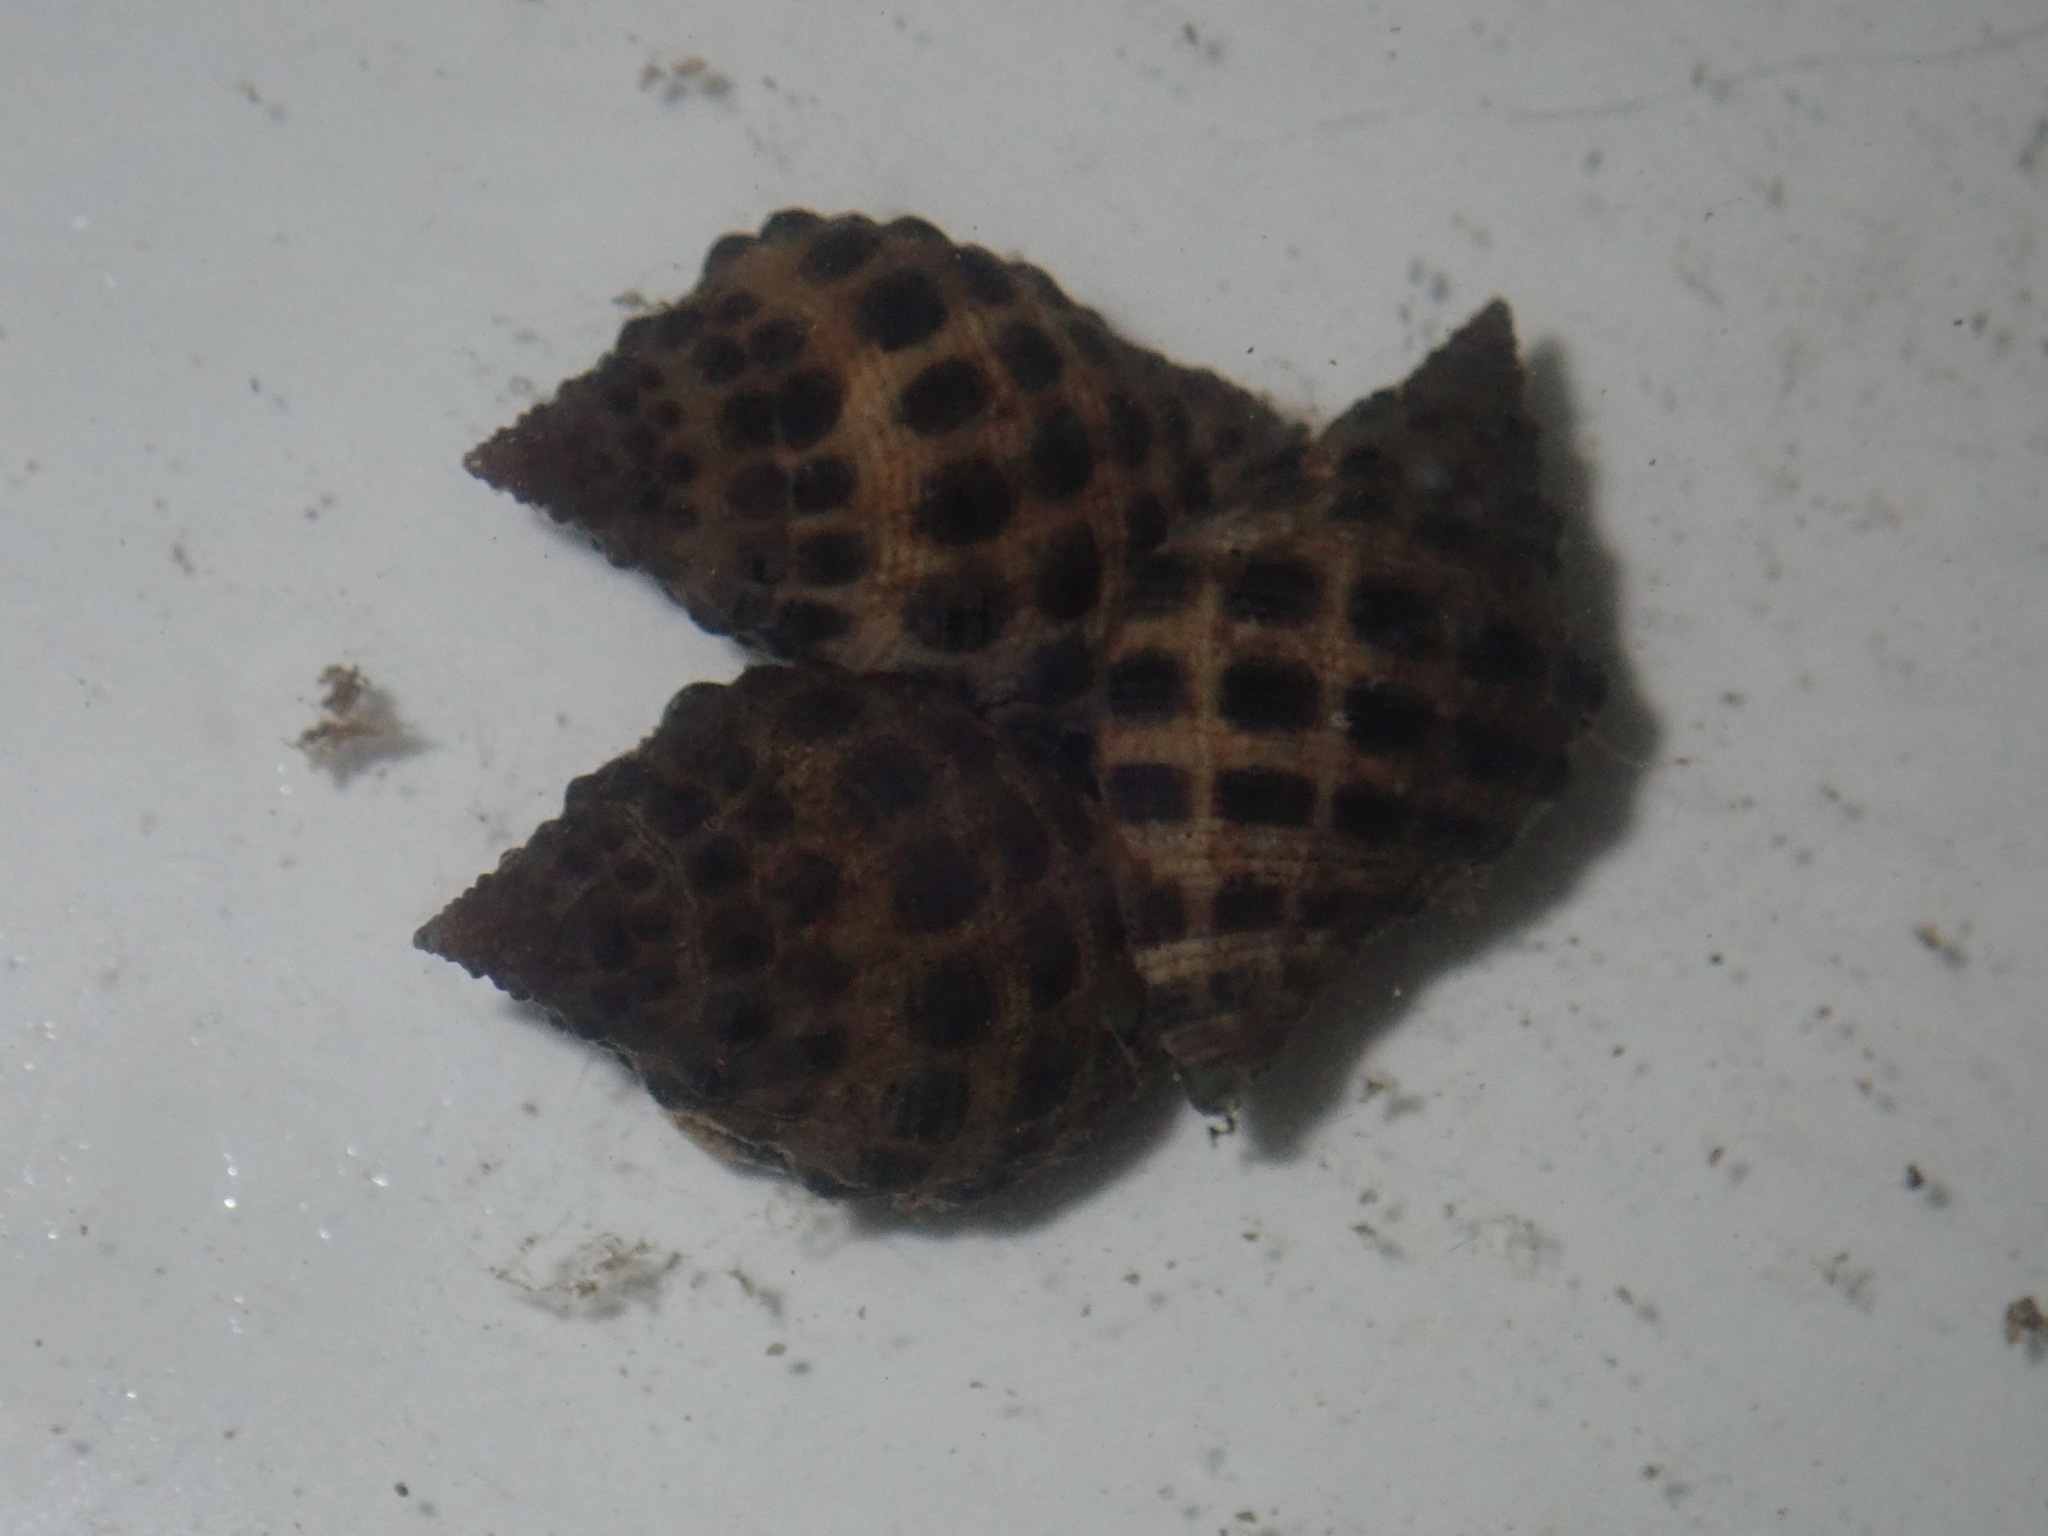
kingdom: Animalia
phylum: Mollusca
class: Gastropoda
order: Neogastropoda
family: Muricidae
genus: Tenguella
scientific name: Tenguella marginalba
